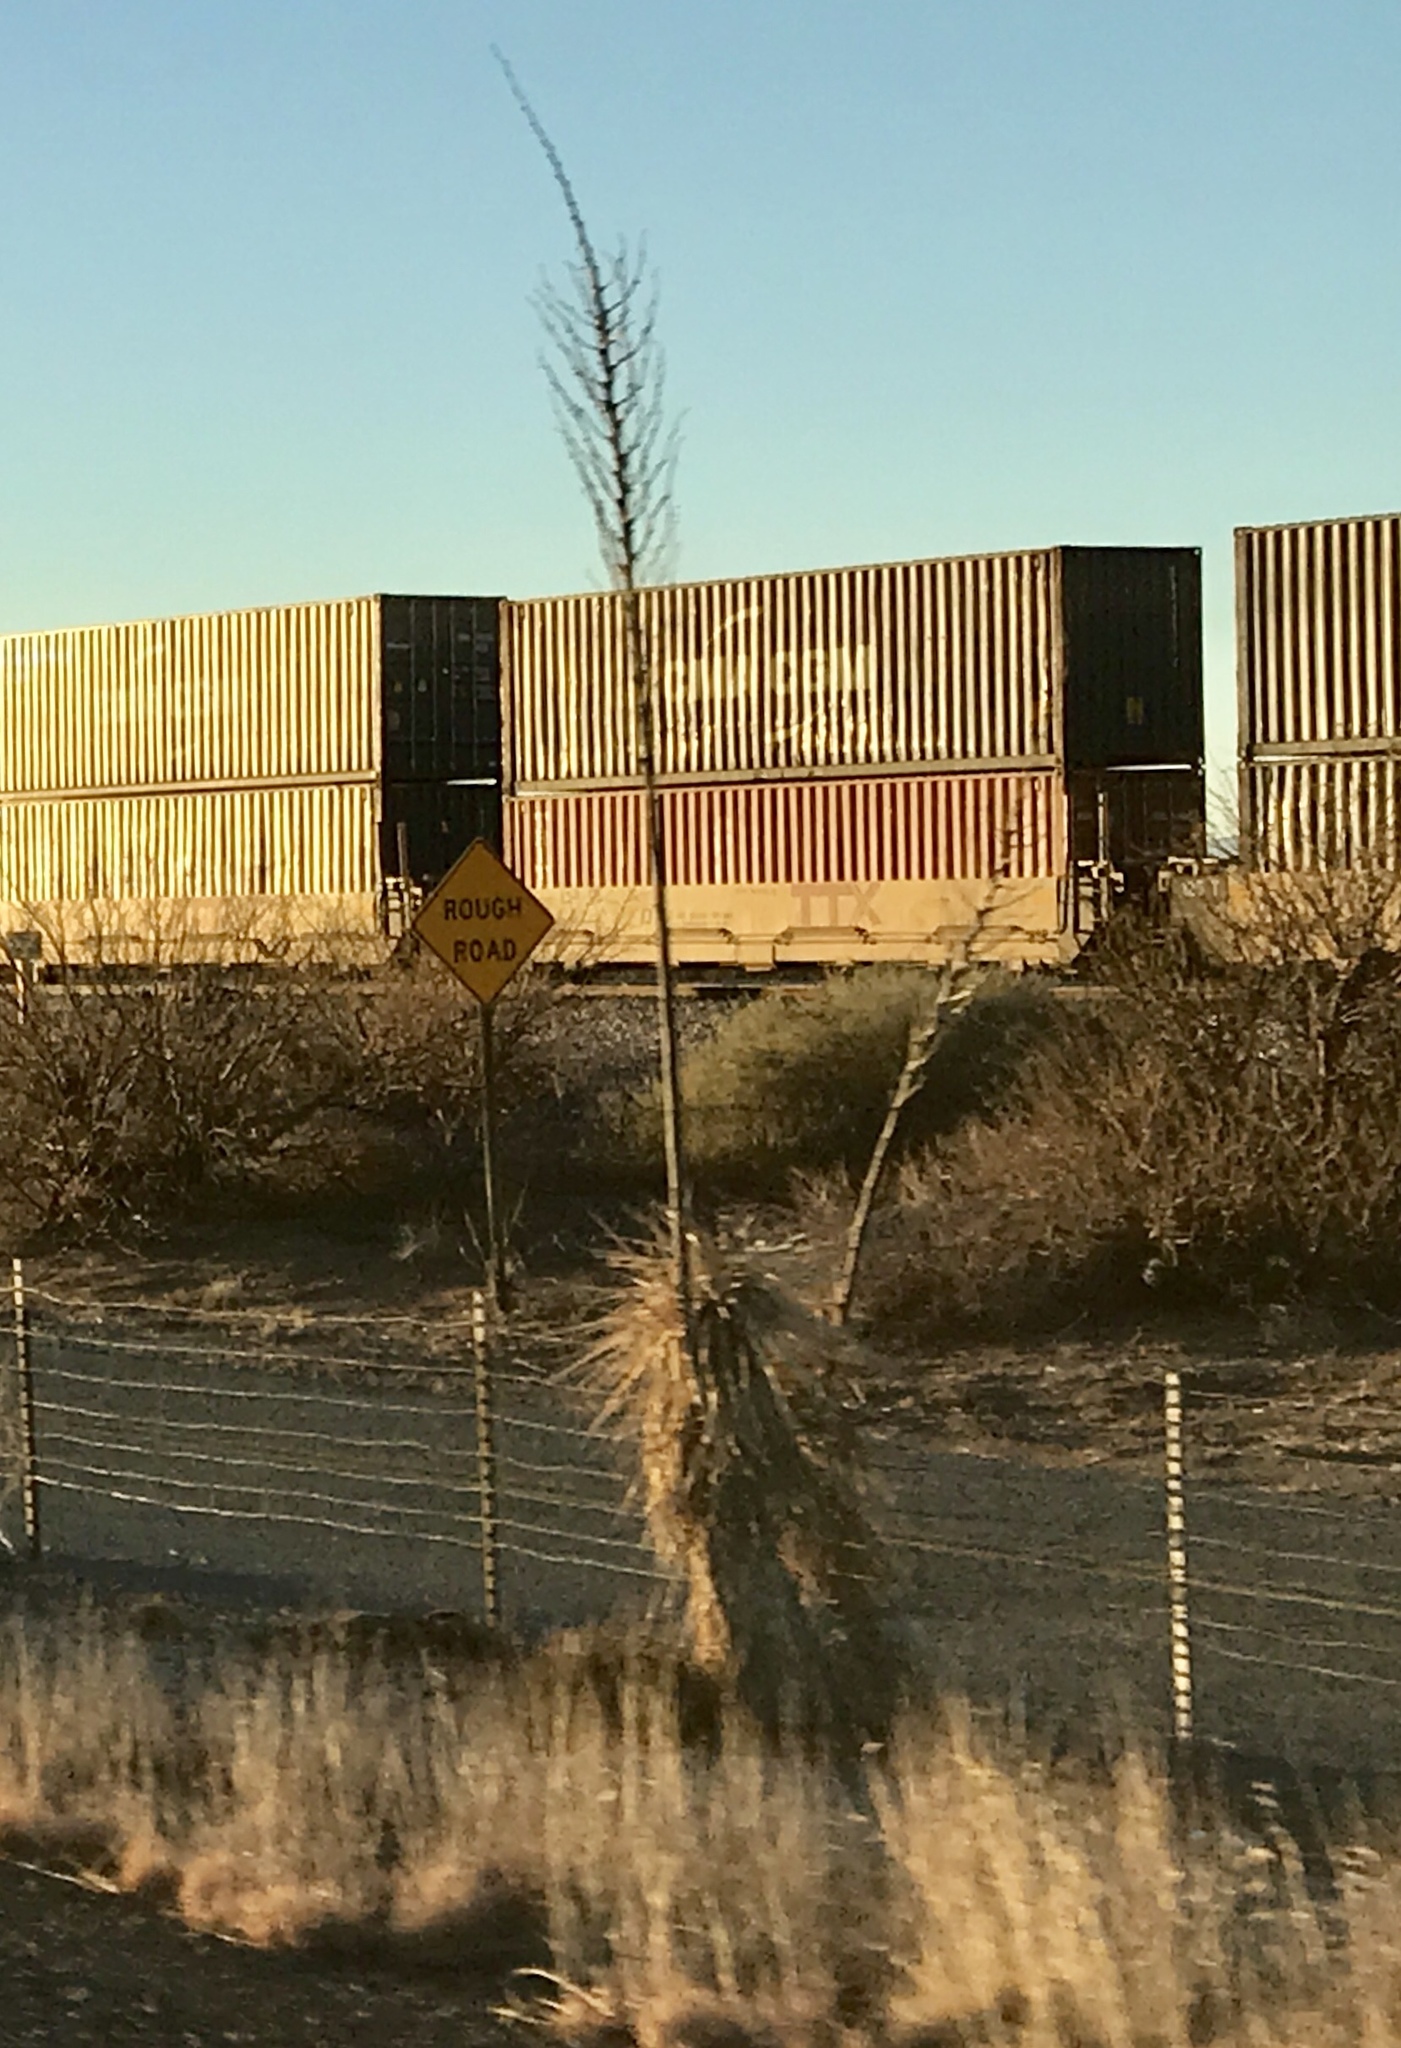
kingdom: Plantae
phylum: Tracheophyta
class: Liliopsida
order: Asparagales
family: Asparagaceae
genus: Yucca
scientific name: Yucca elata
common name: Palmella
